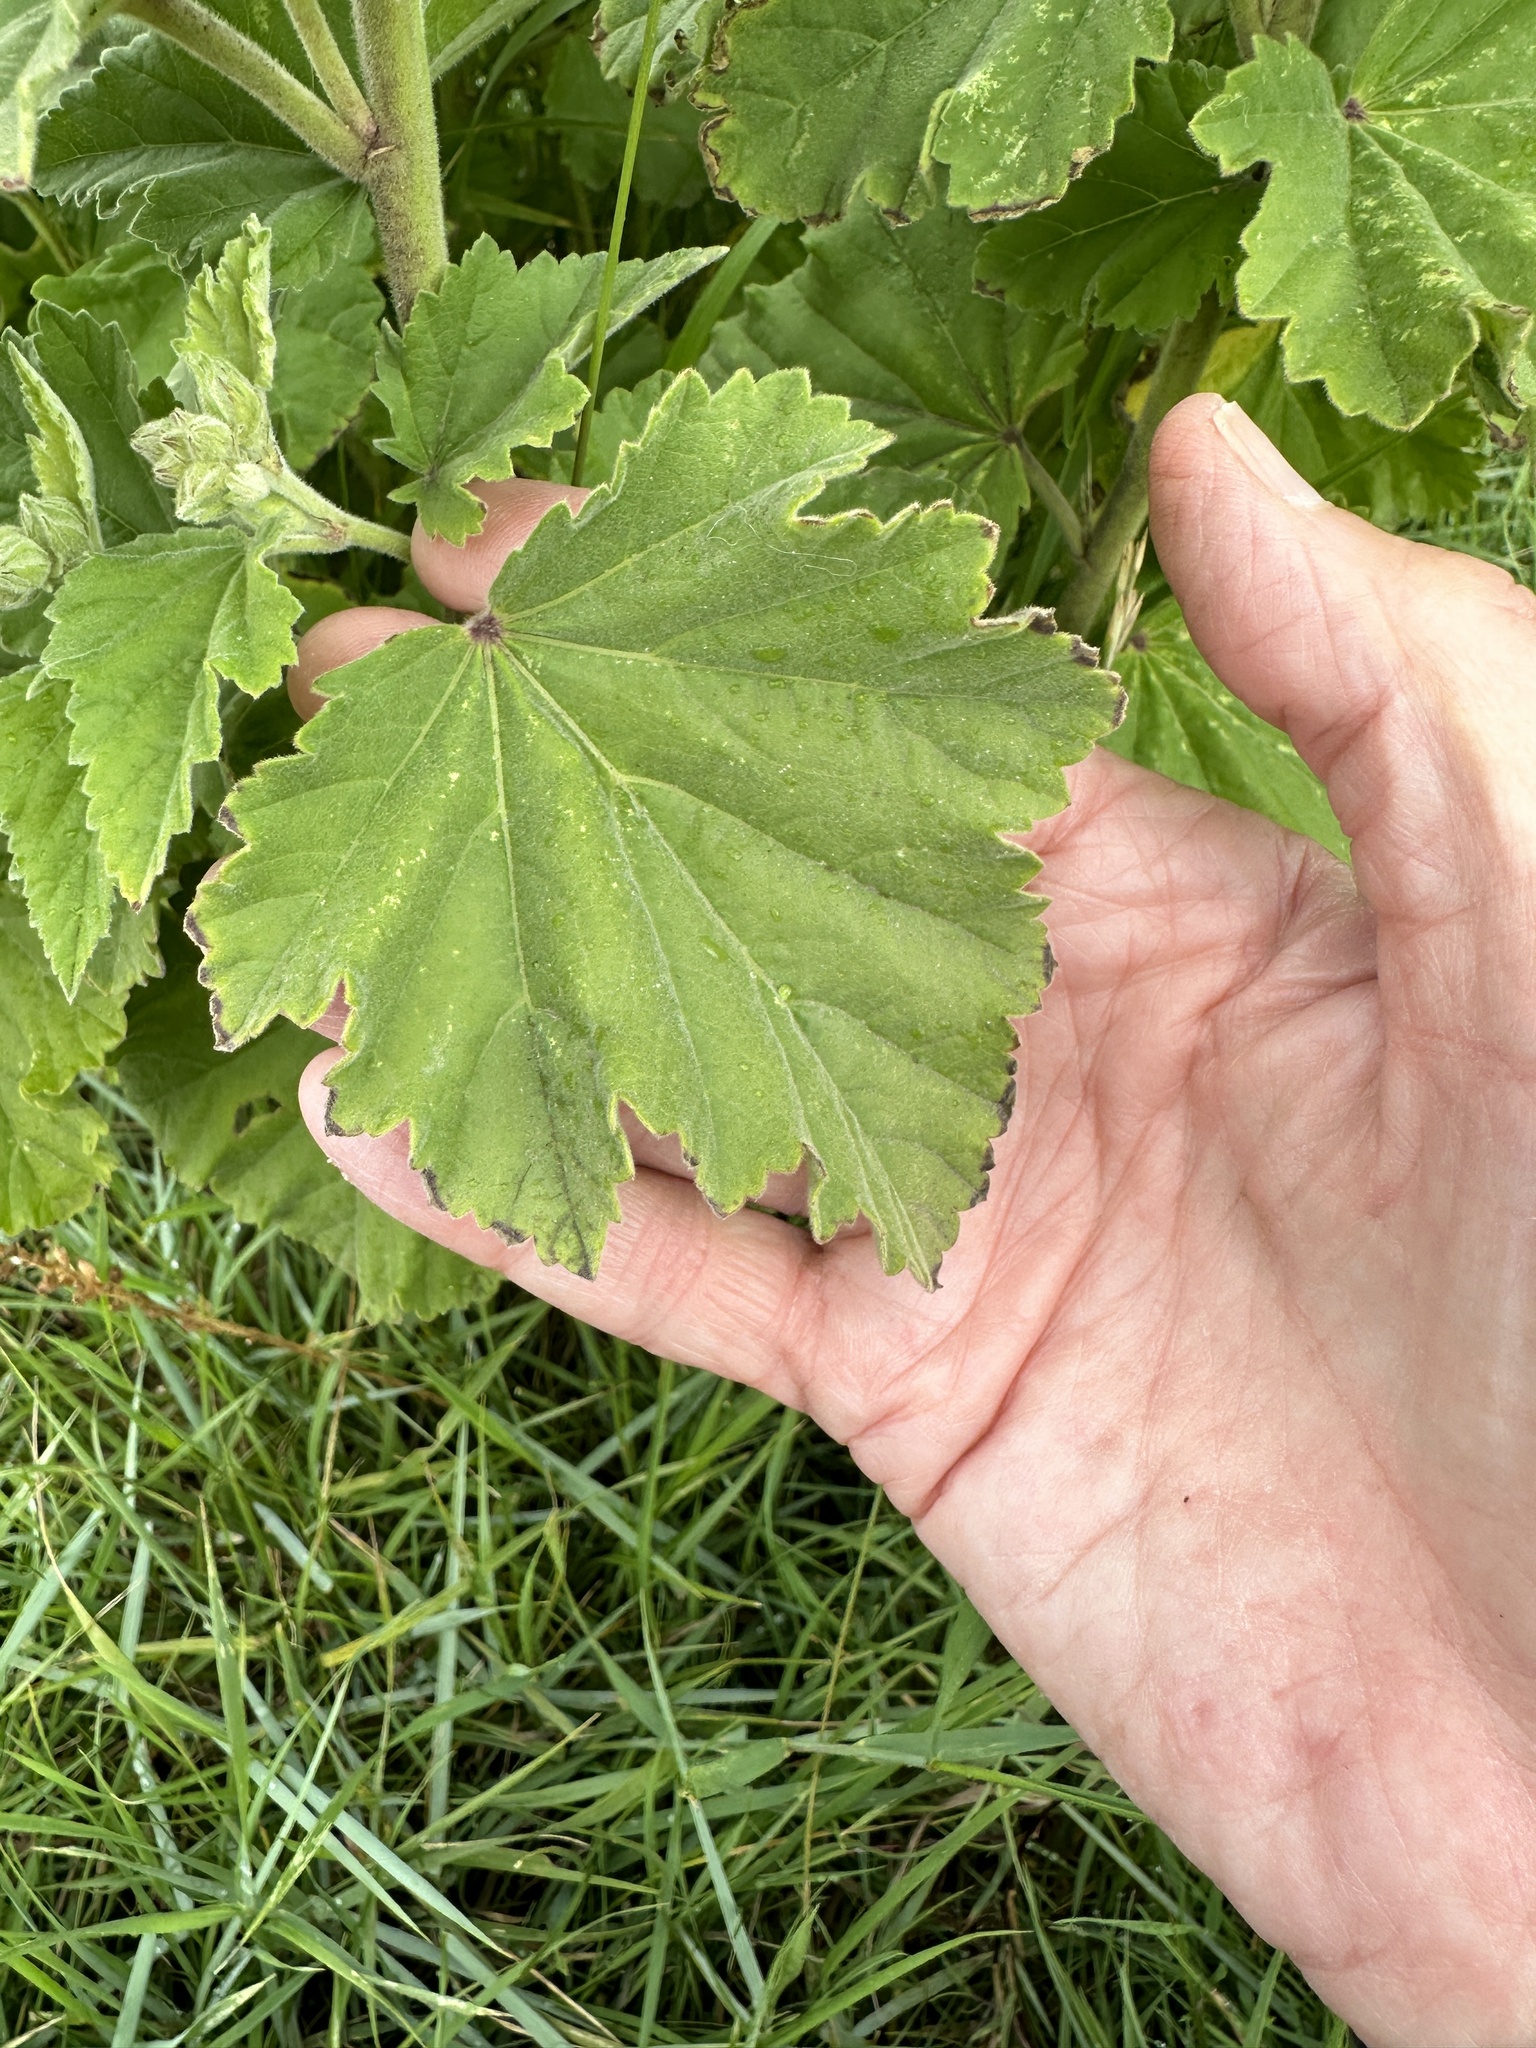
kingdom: Plantae
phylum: Tracheophyta
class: Magnoliopsida
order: Malvales
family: Malvaceae
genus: Althaea
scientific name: Althaea officinalis
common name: Marsh-mallow
